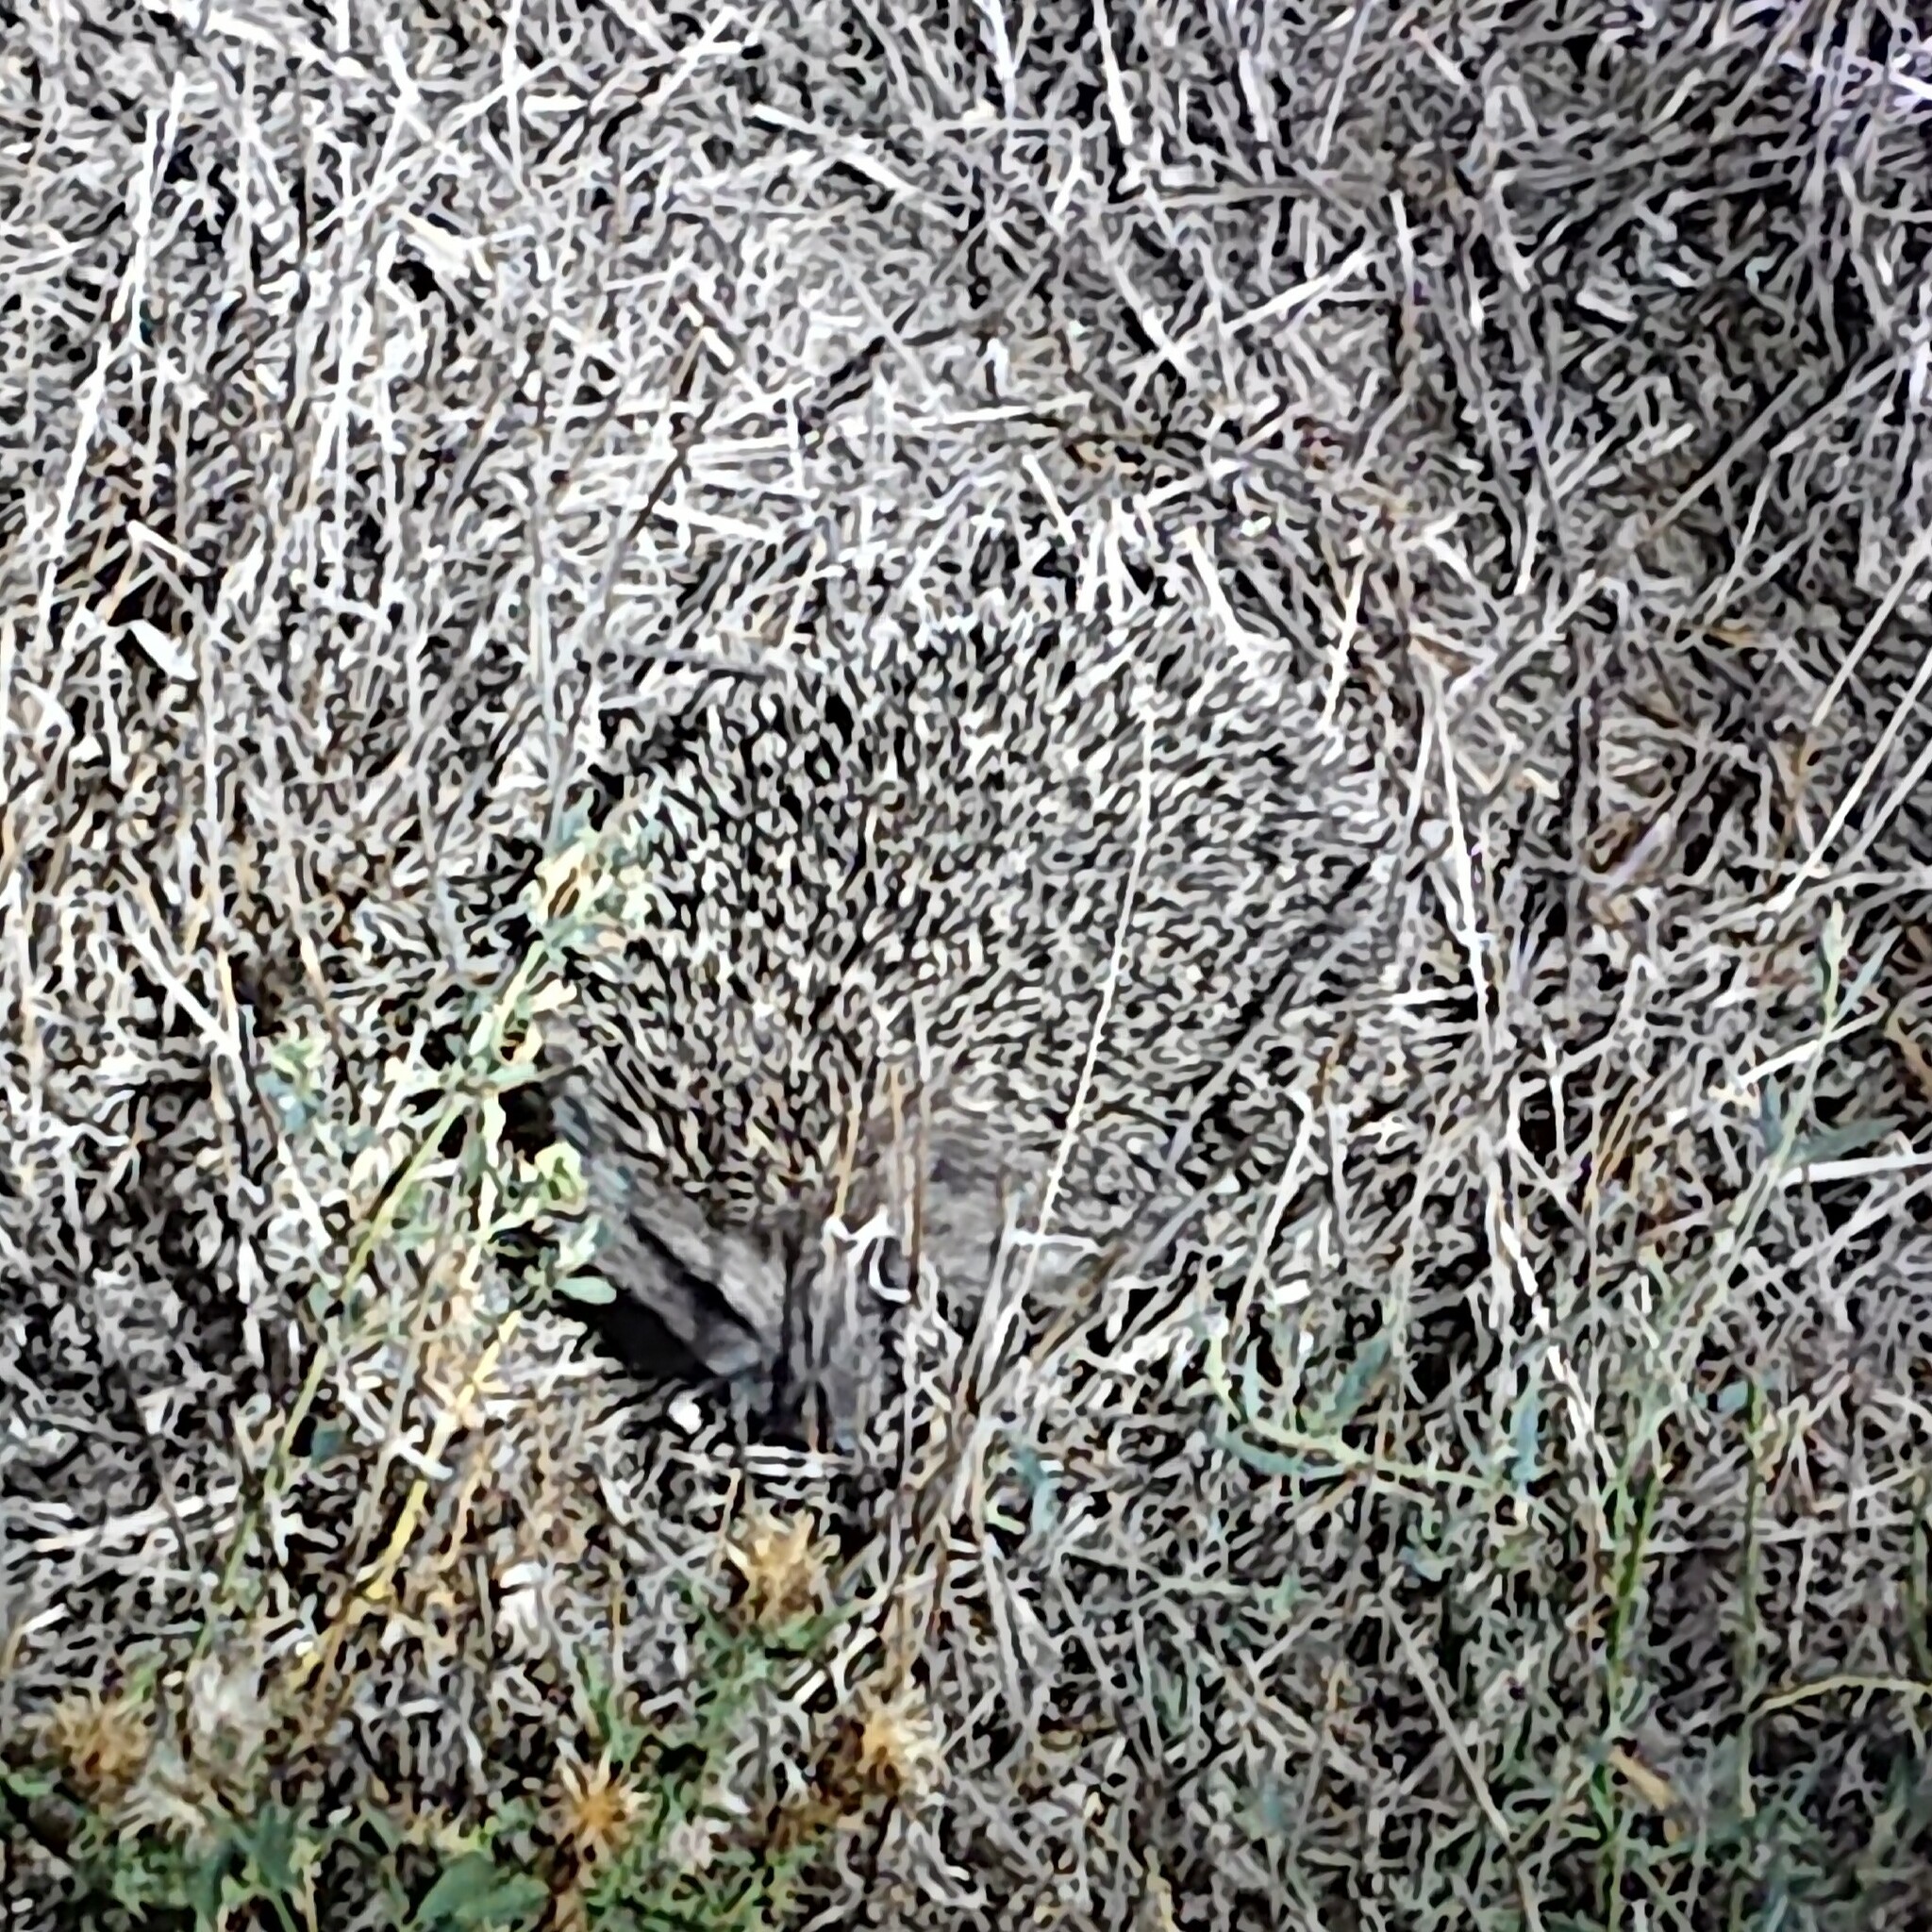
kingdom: Animalia
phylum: Chordata
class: Mammalia
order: Erinaceomorpha
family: Erinaceidae
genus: Erinaceus
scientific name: Erinaceus roumanicus
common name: Northern white-breasted hedgehog
